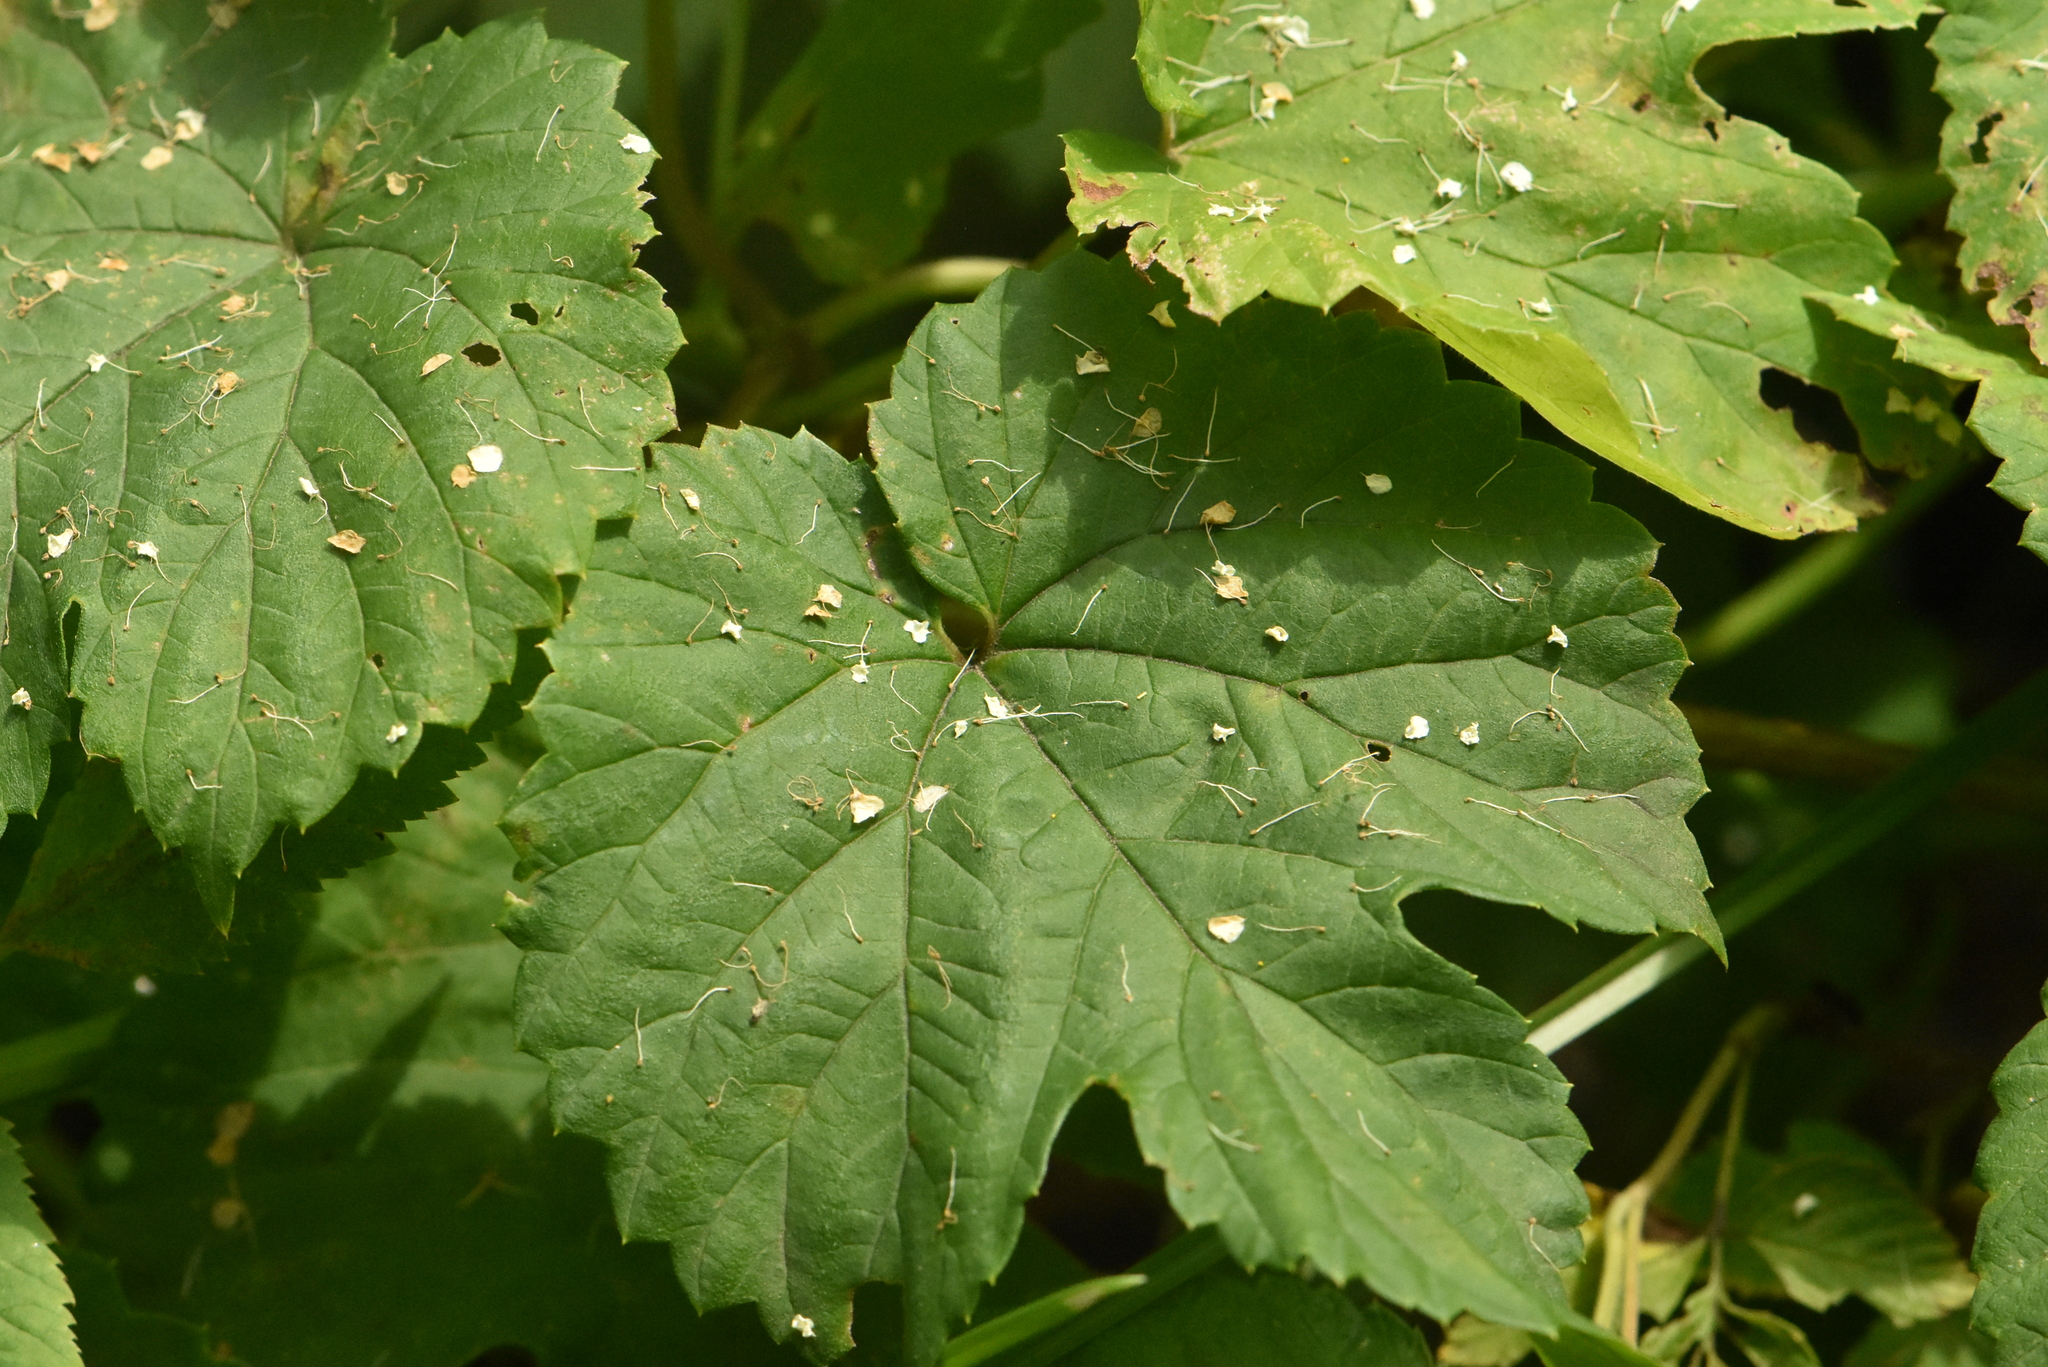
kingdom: Plantae
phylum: Tracheophyta
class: Magnoliopsida
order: Rosales
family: Cannabaceae
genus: Humulus
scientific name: Humulus lupulus
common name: Hop
